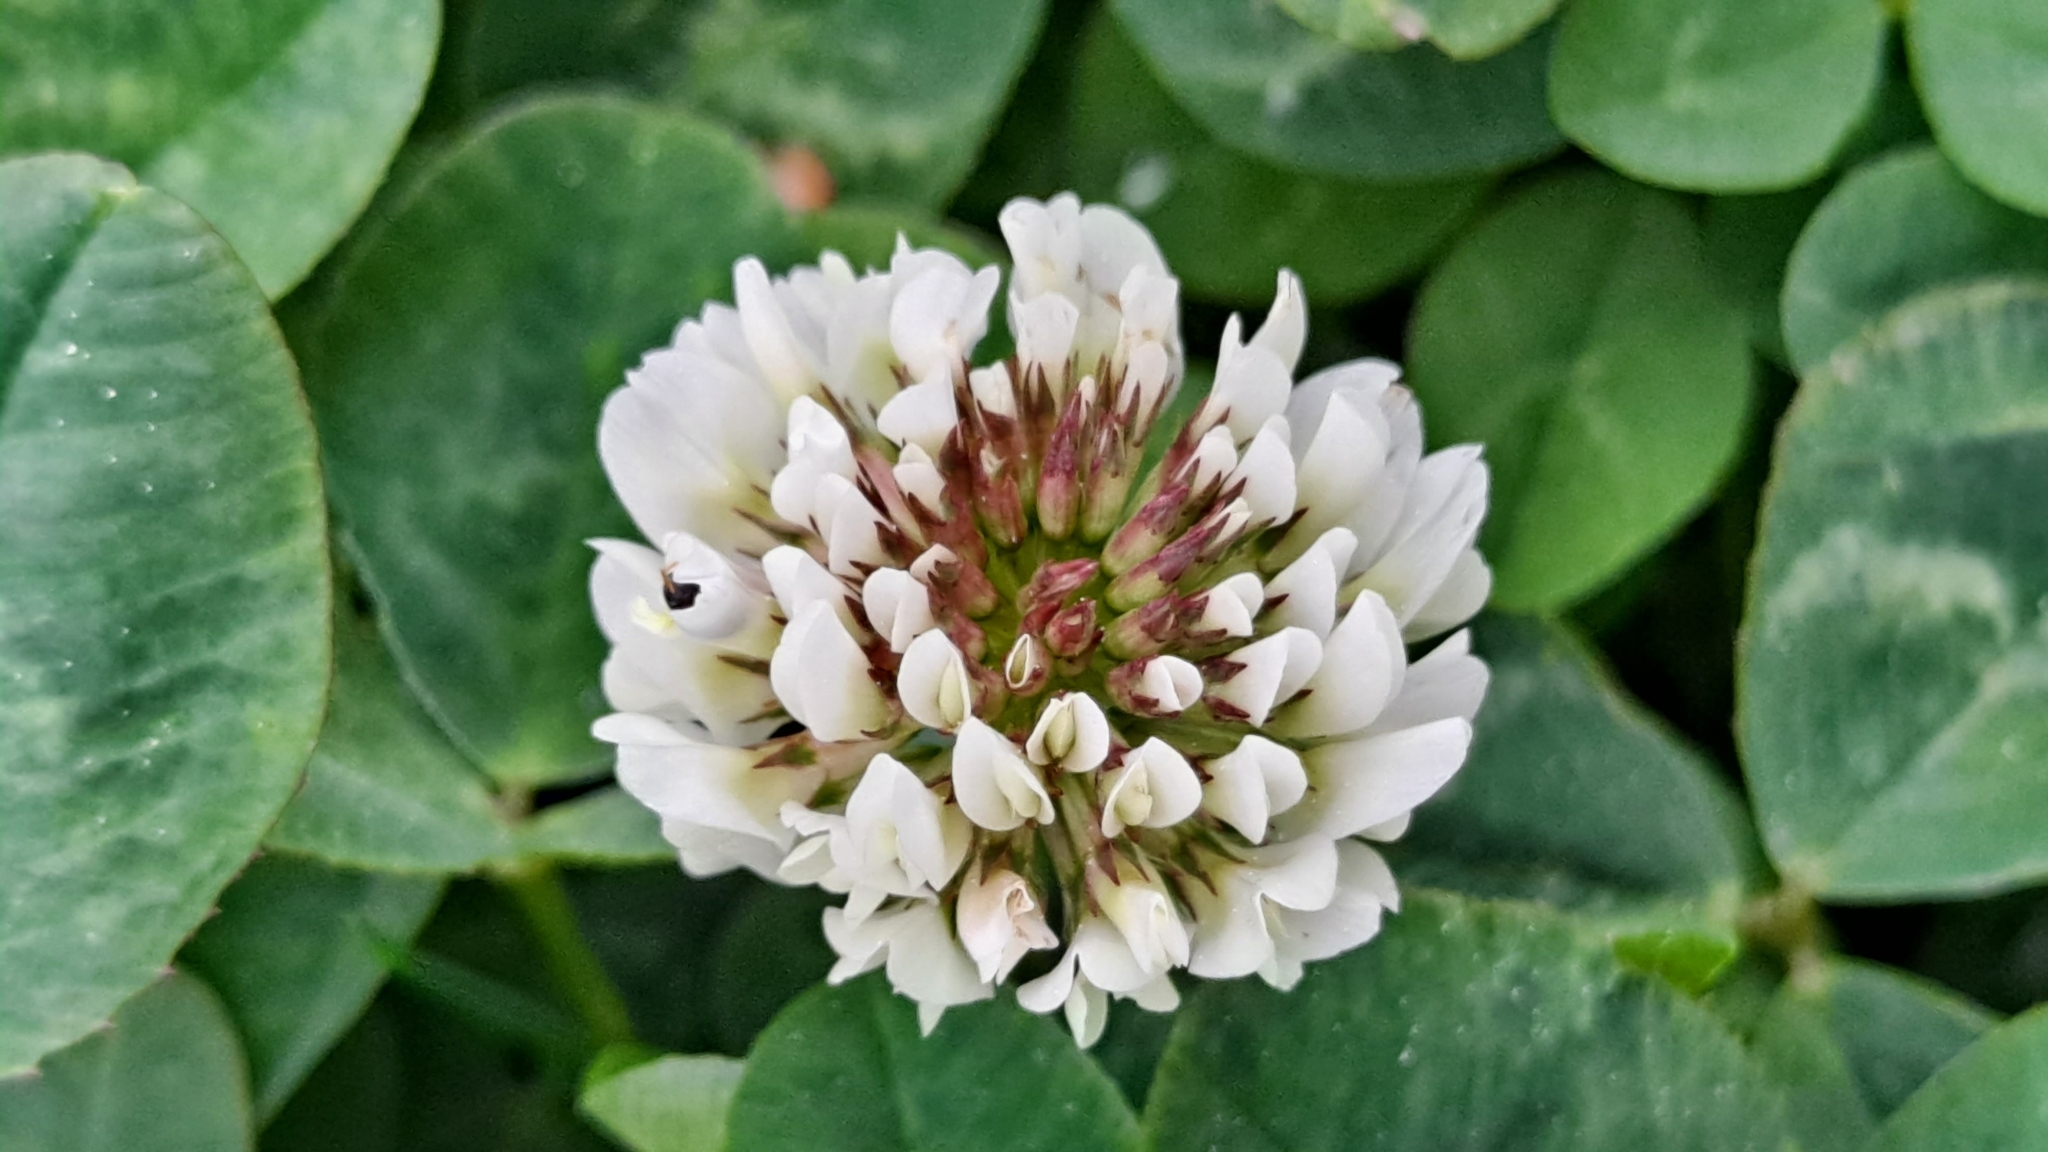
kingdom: Plantae
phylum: Tracheophyta
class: Magnoliopsida
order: Fabales
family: Fabaceae
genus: Trifolium
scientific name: Trifolium repens
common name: White clover
